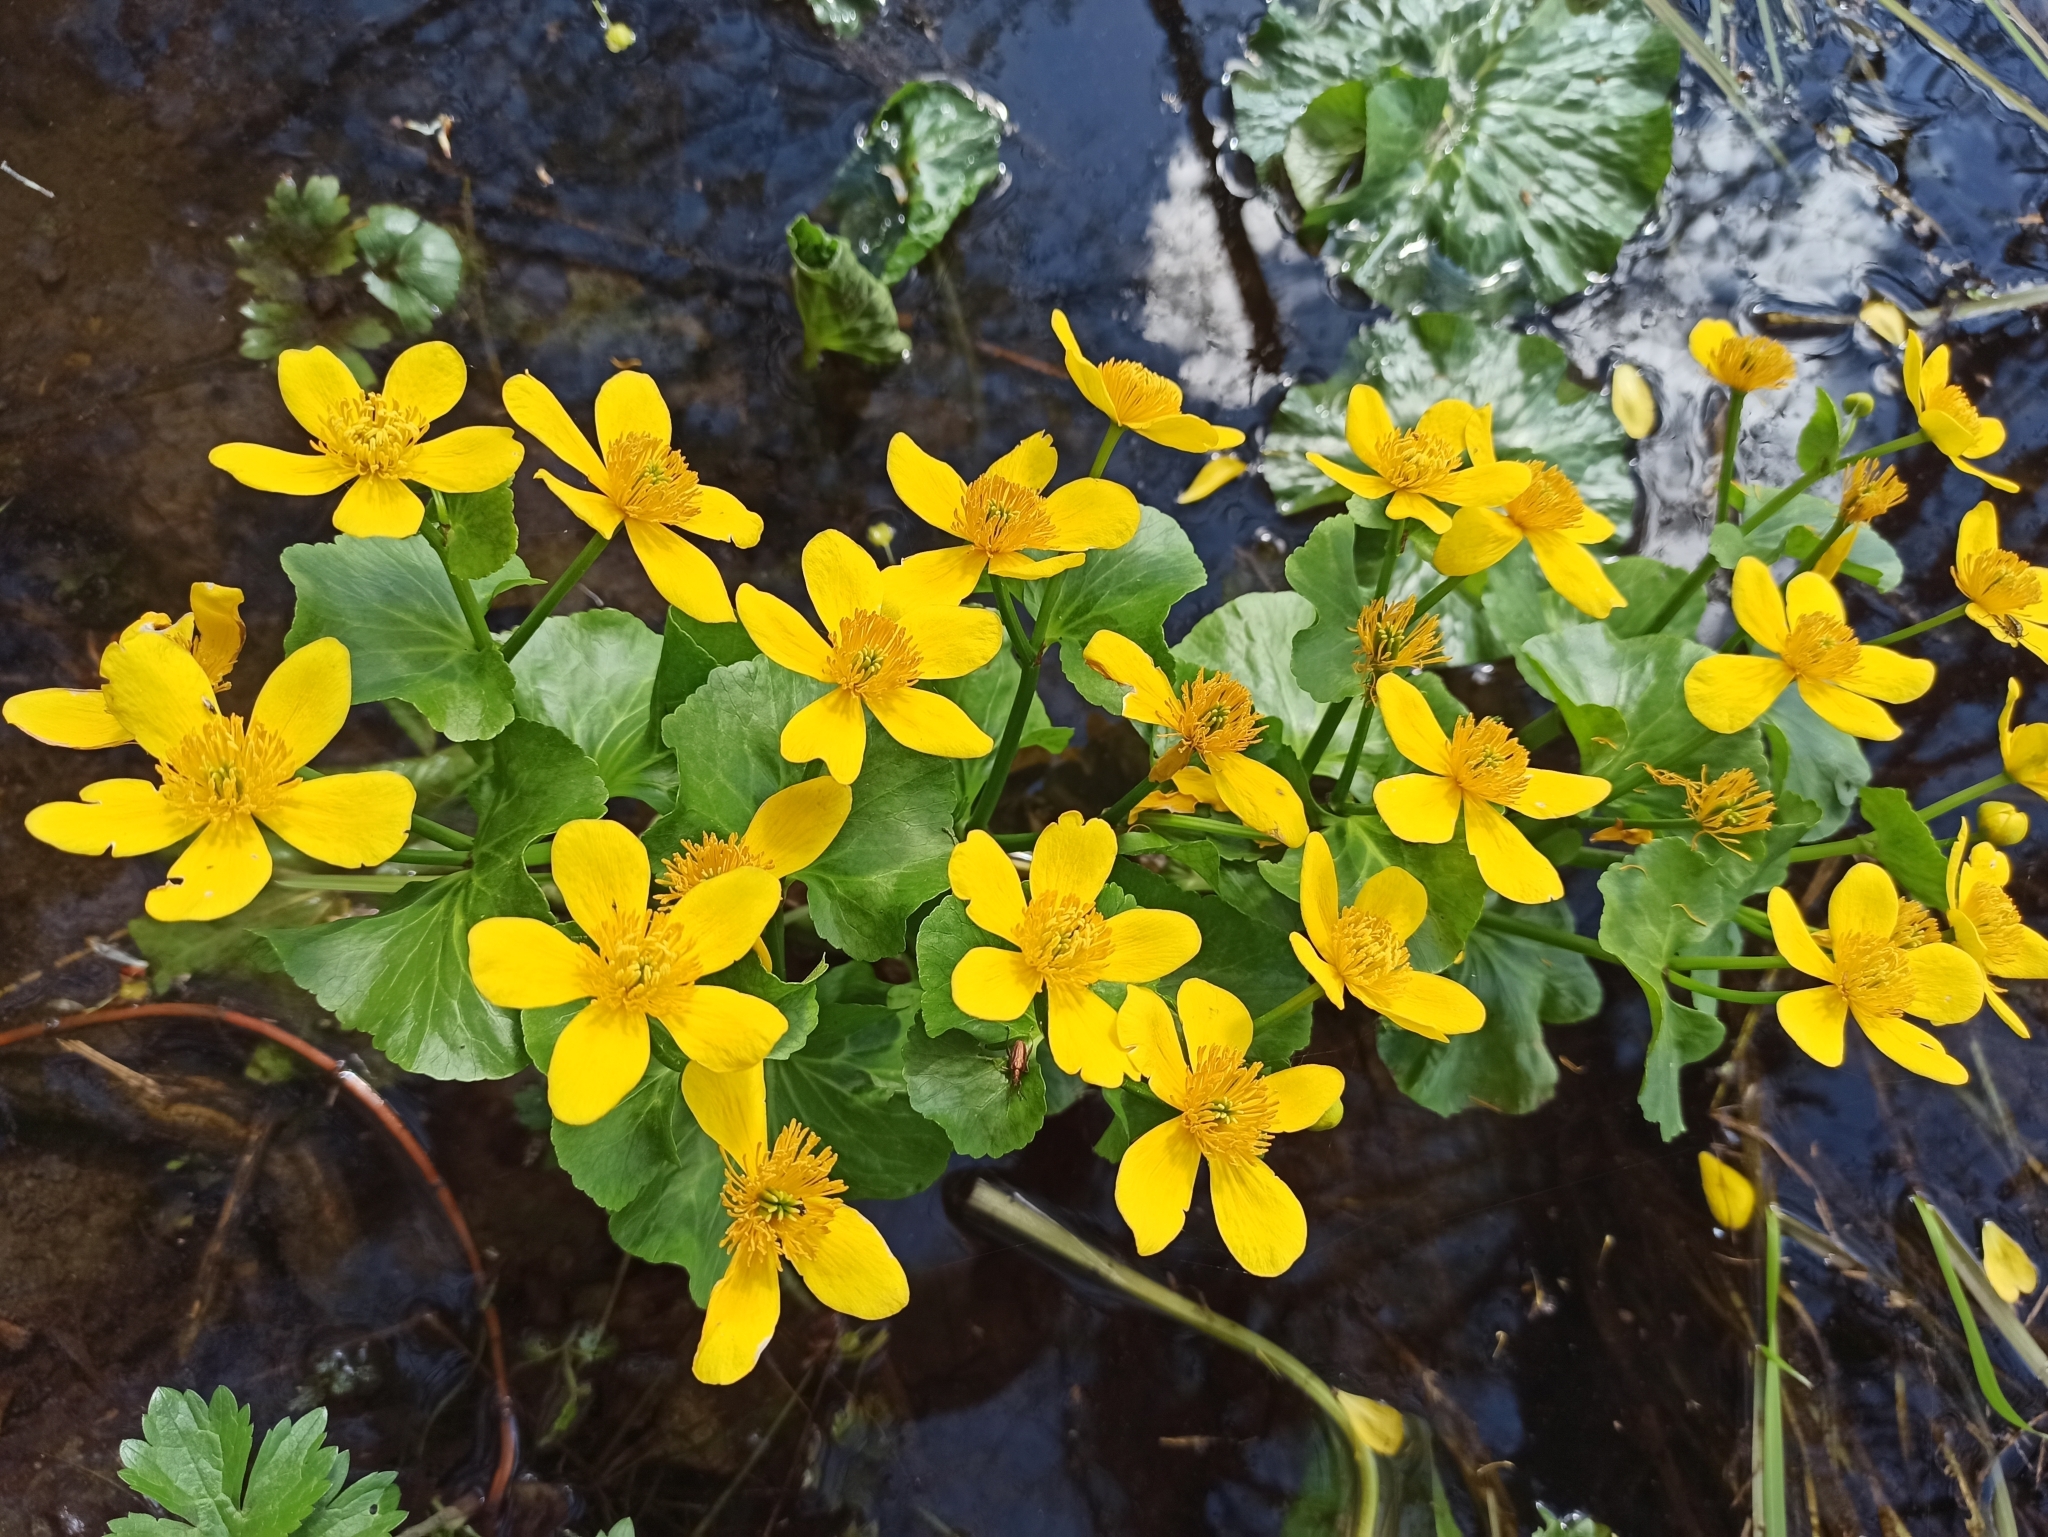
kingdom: Plantae
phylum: Tracheophyta
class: Magnoliopsida
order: Ranunculales
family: Ranunculaceae
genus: Caltha
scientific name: Caltha palustris
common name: Marsh marigold
